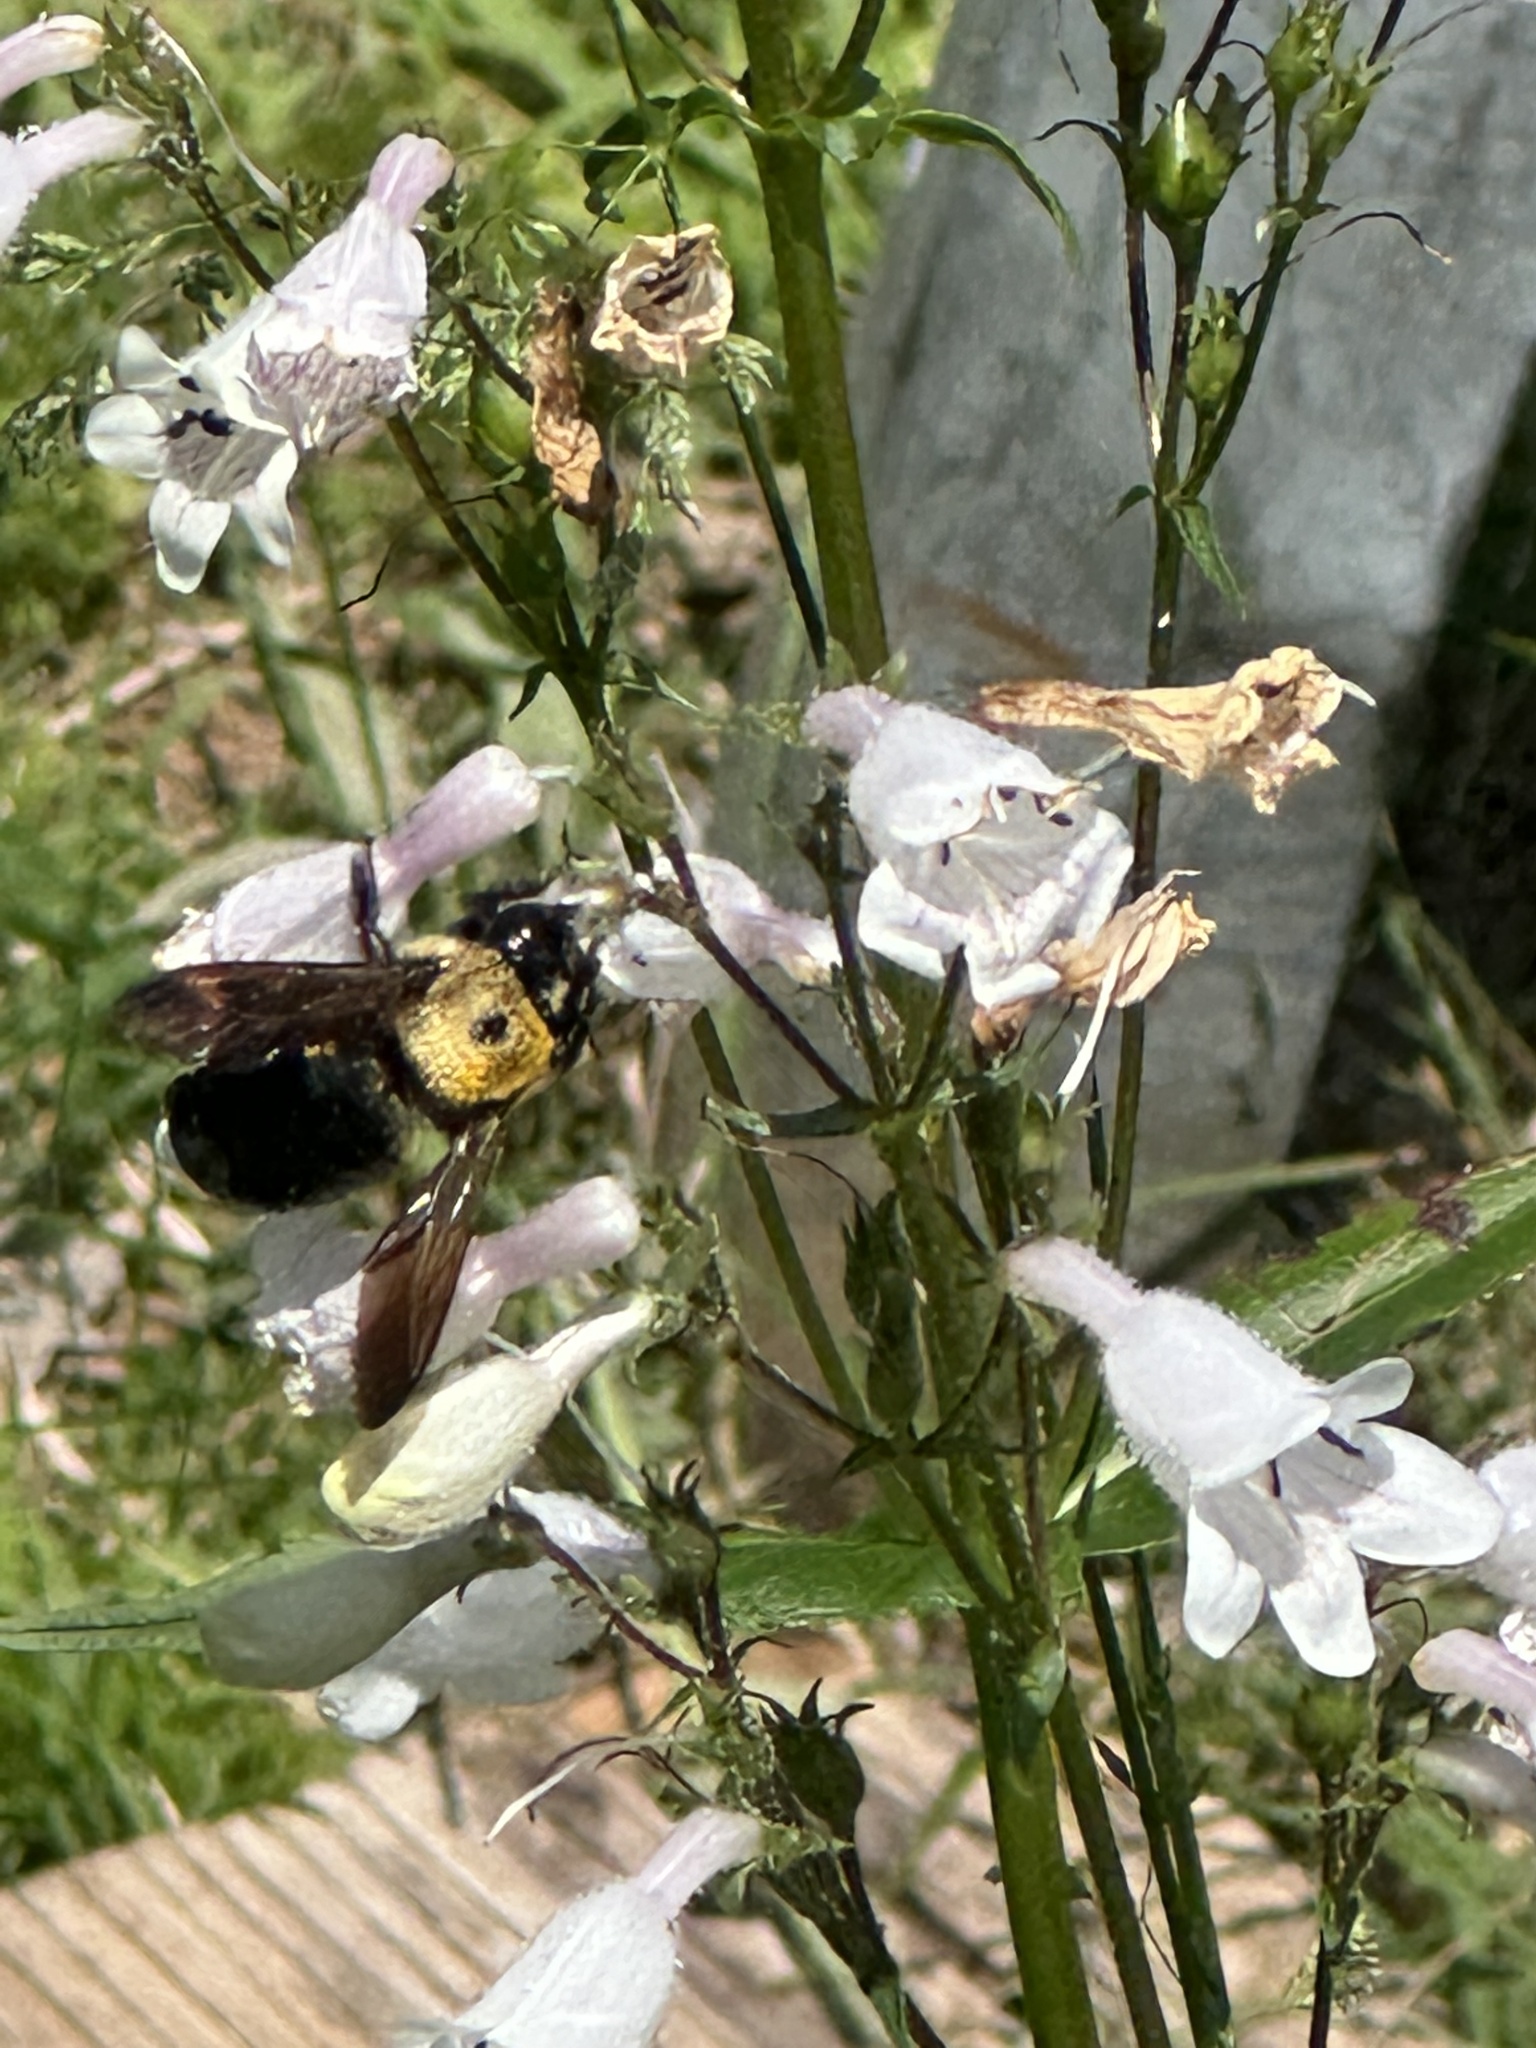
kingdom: Animalia
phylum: Arthropoda
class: Insecta
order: Hymenoptera
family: Apidae
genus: Xylocopa
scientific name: Xylocopa virginica
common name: Carpenter bee
